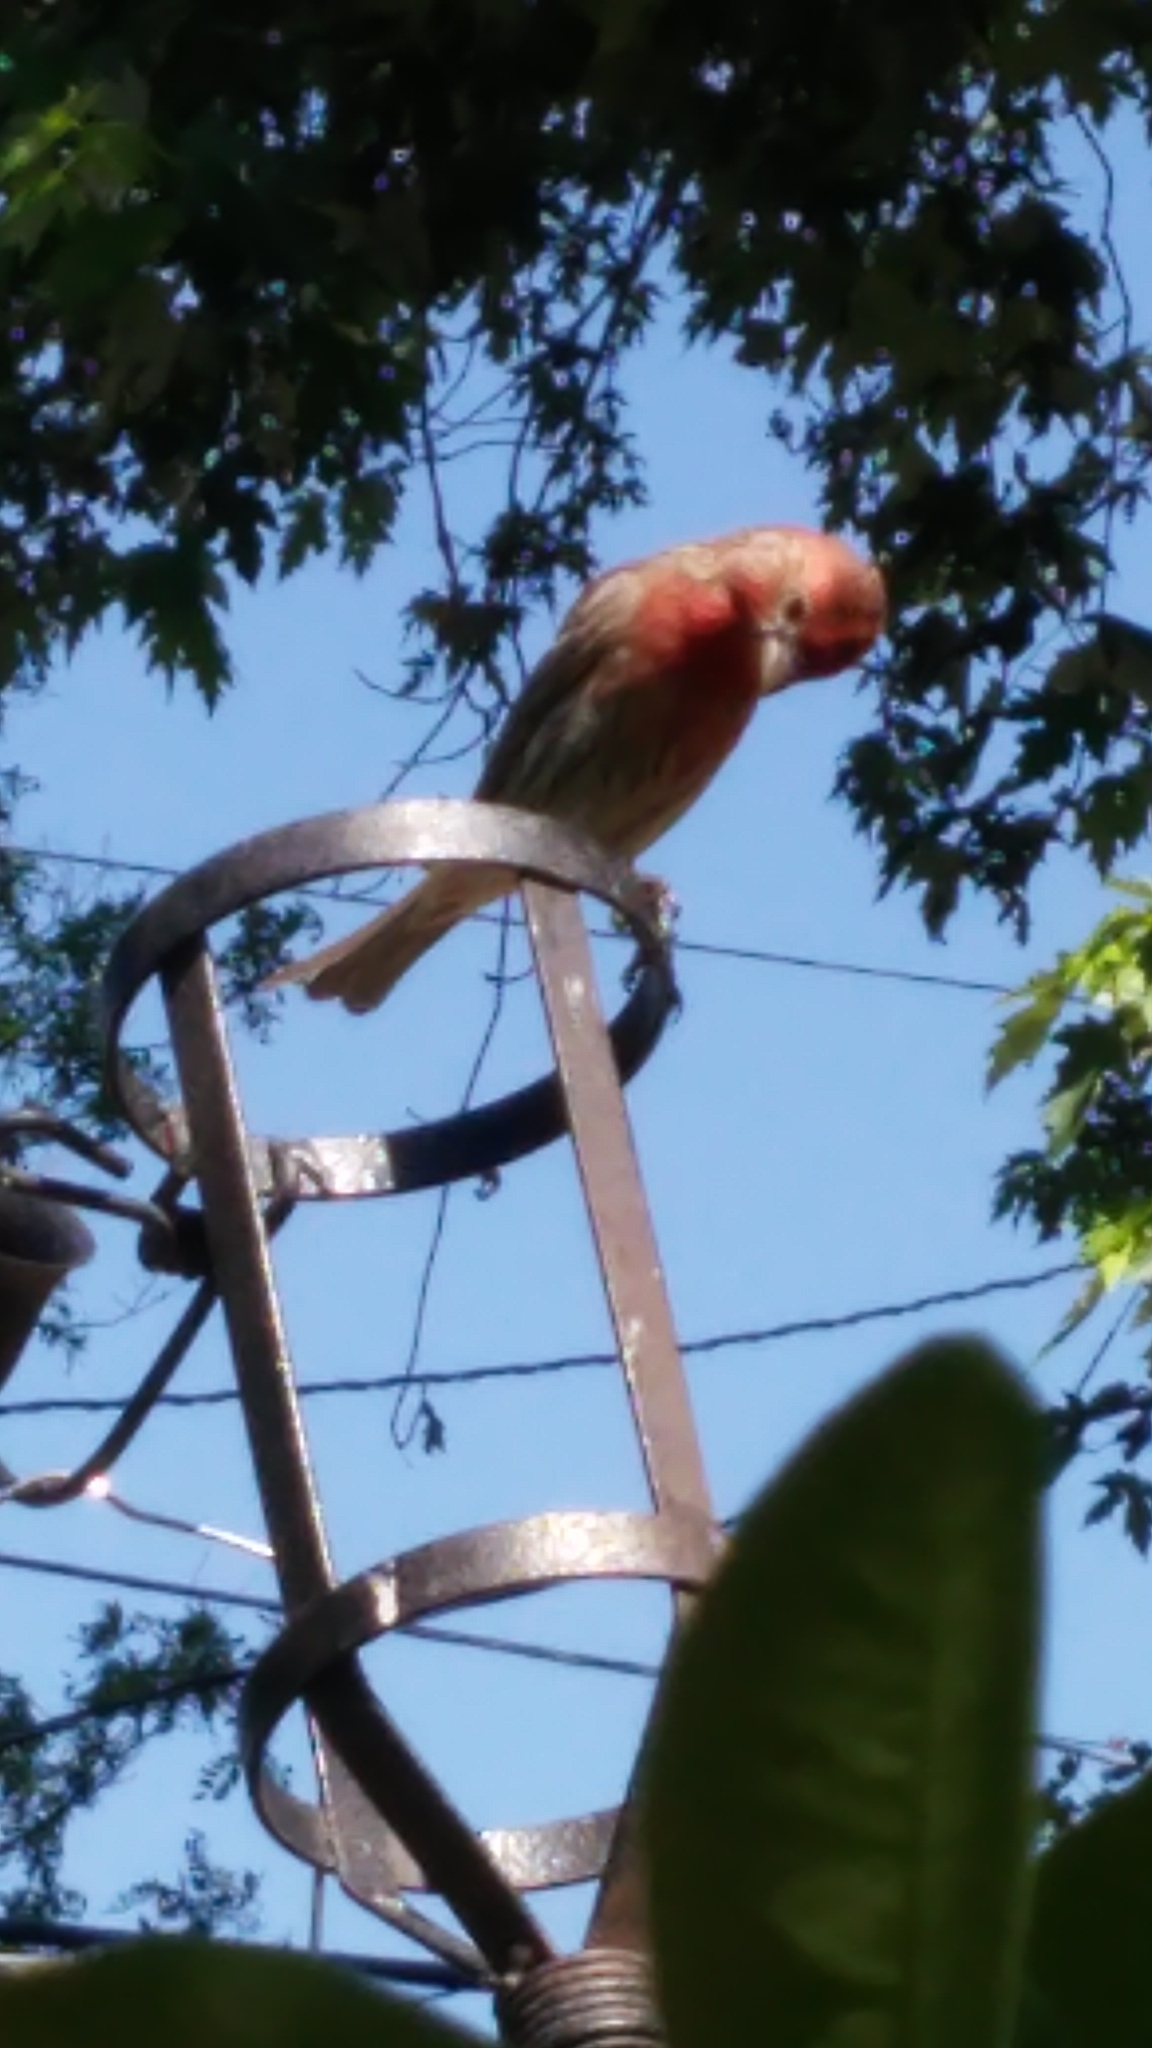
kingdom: Animalia
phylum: Chordata
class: Aves
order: Passeriformes
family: Fringillidae
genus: Haemorhous
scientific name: Haemorhous mexicanus
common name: House finch
